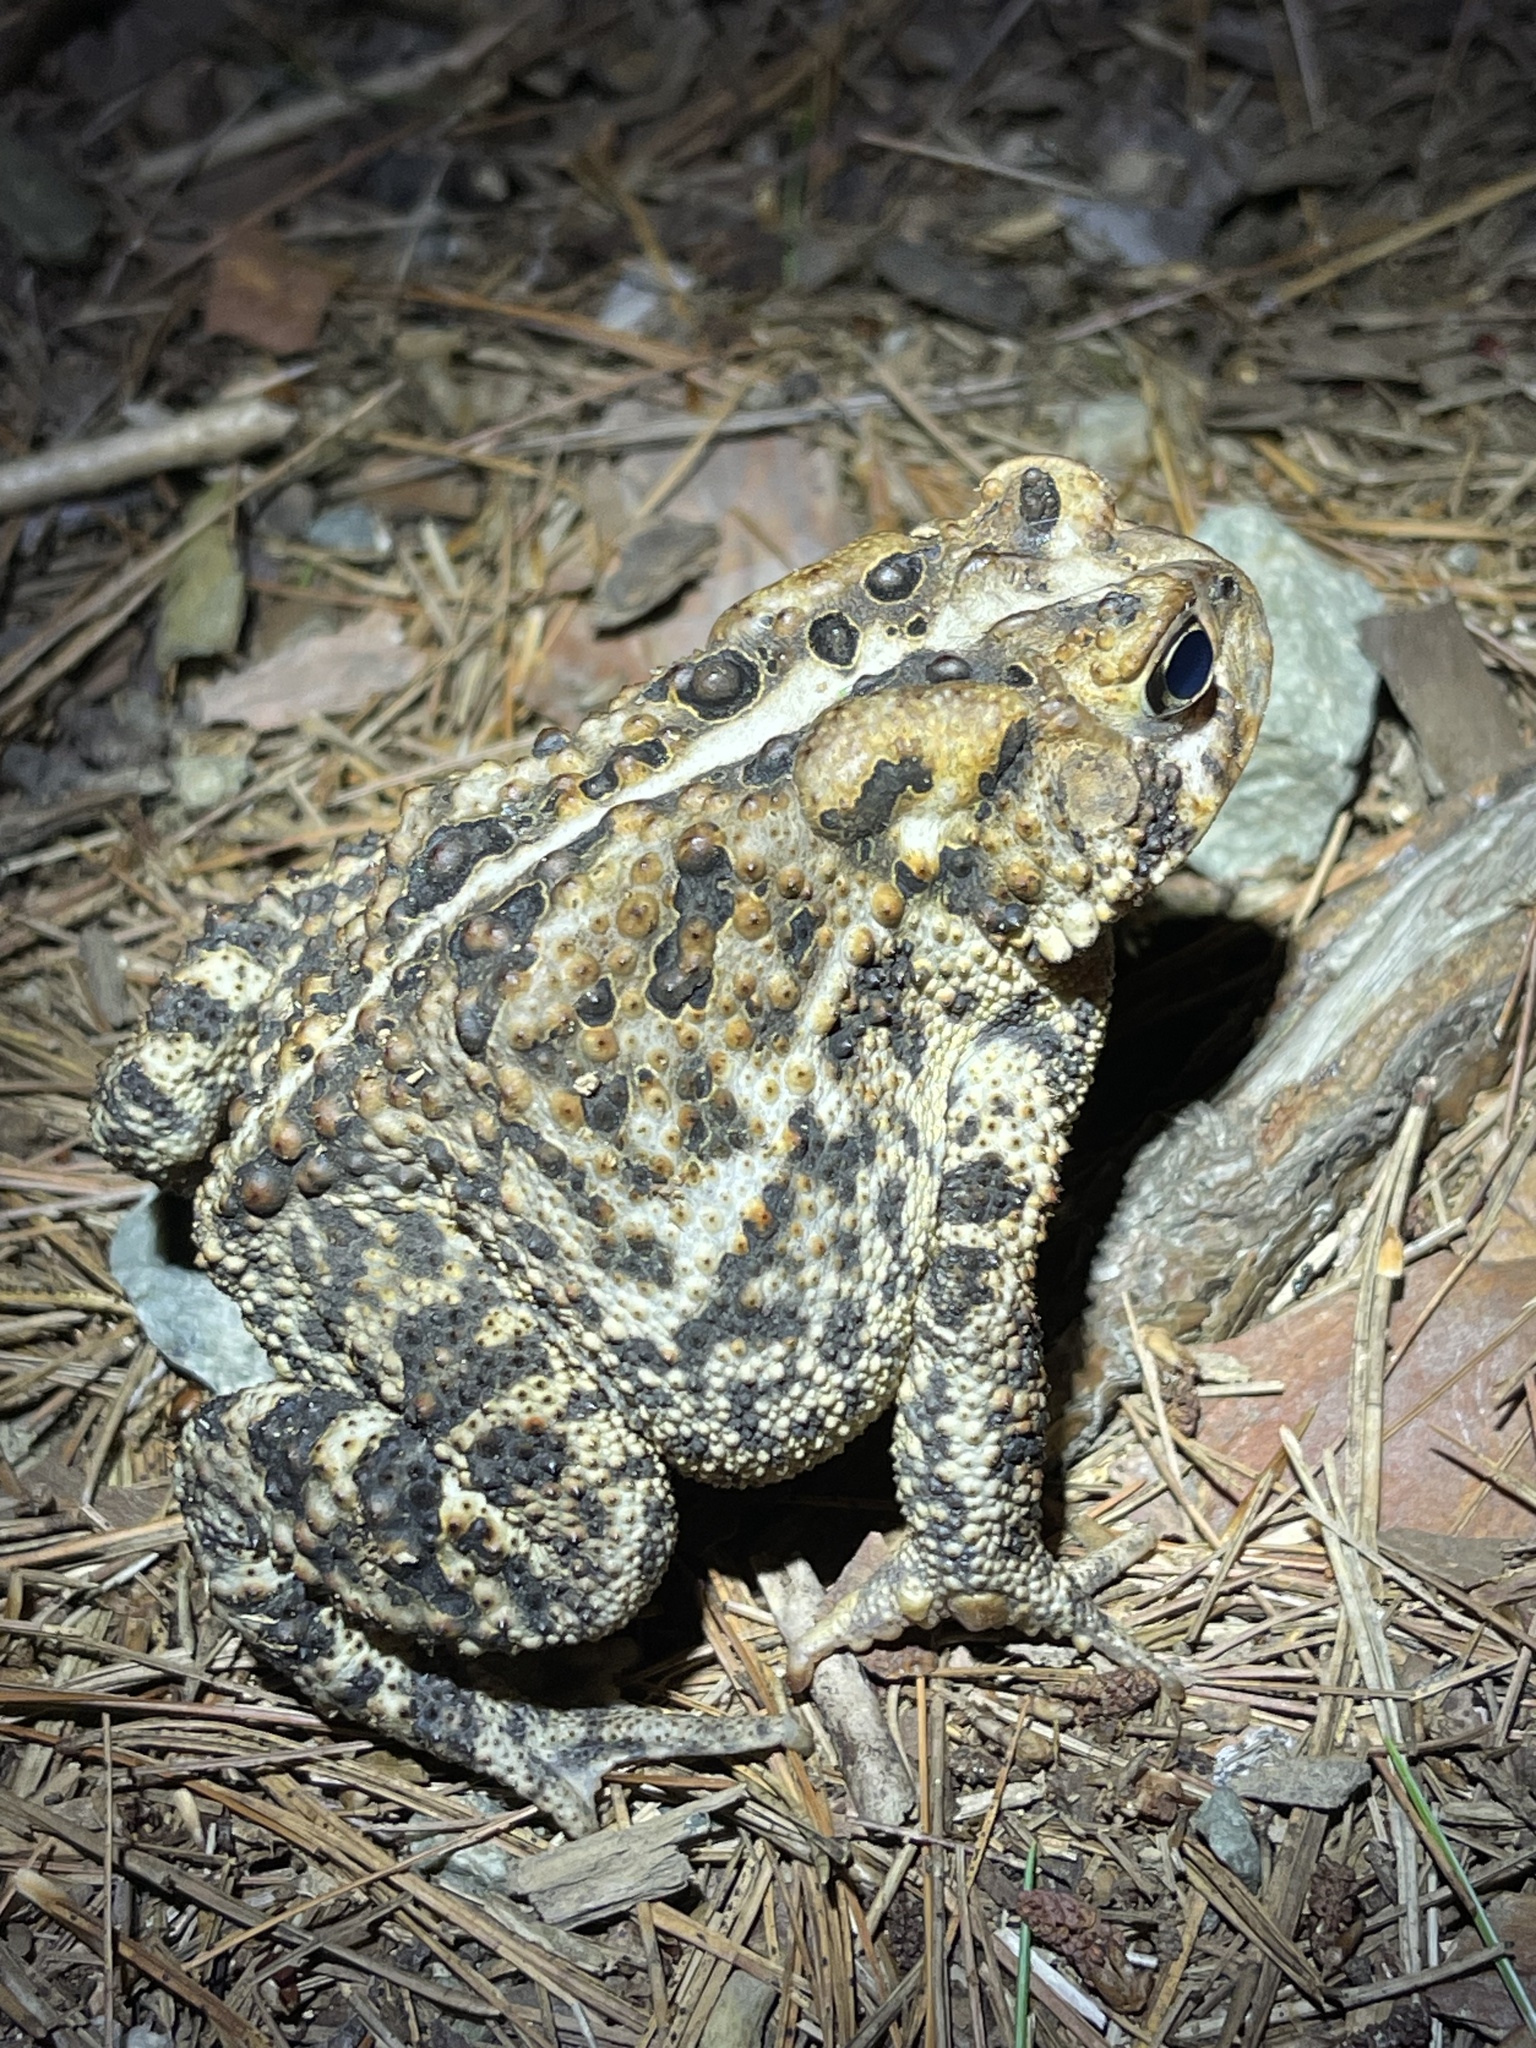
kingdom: Animalia
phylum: Chordata
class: Amphibia
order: Anura
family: Bufonidae
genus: Anaxyrus
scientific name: Anaxyrus americanus
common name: American toad
